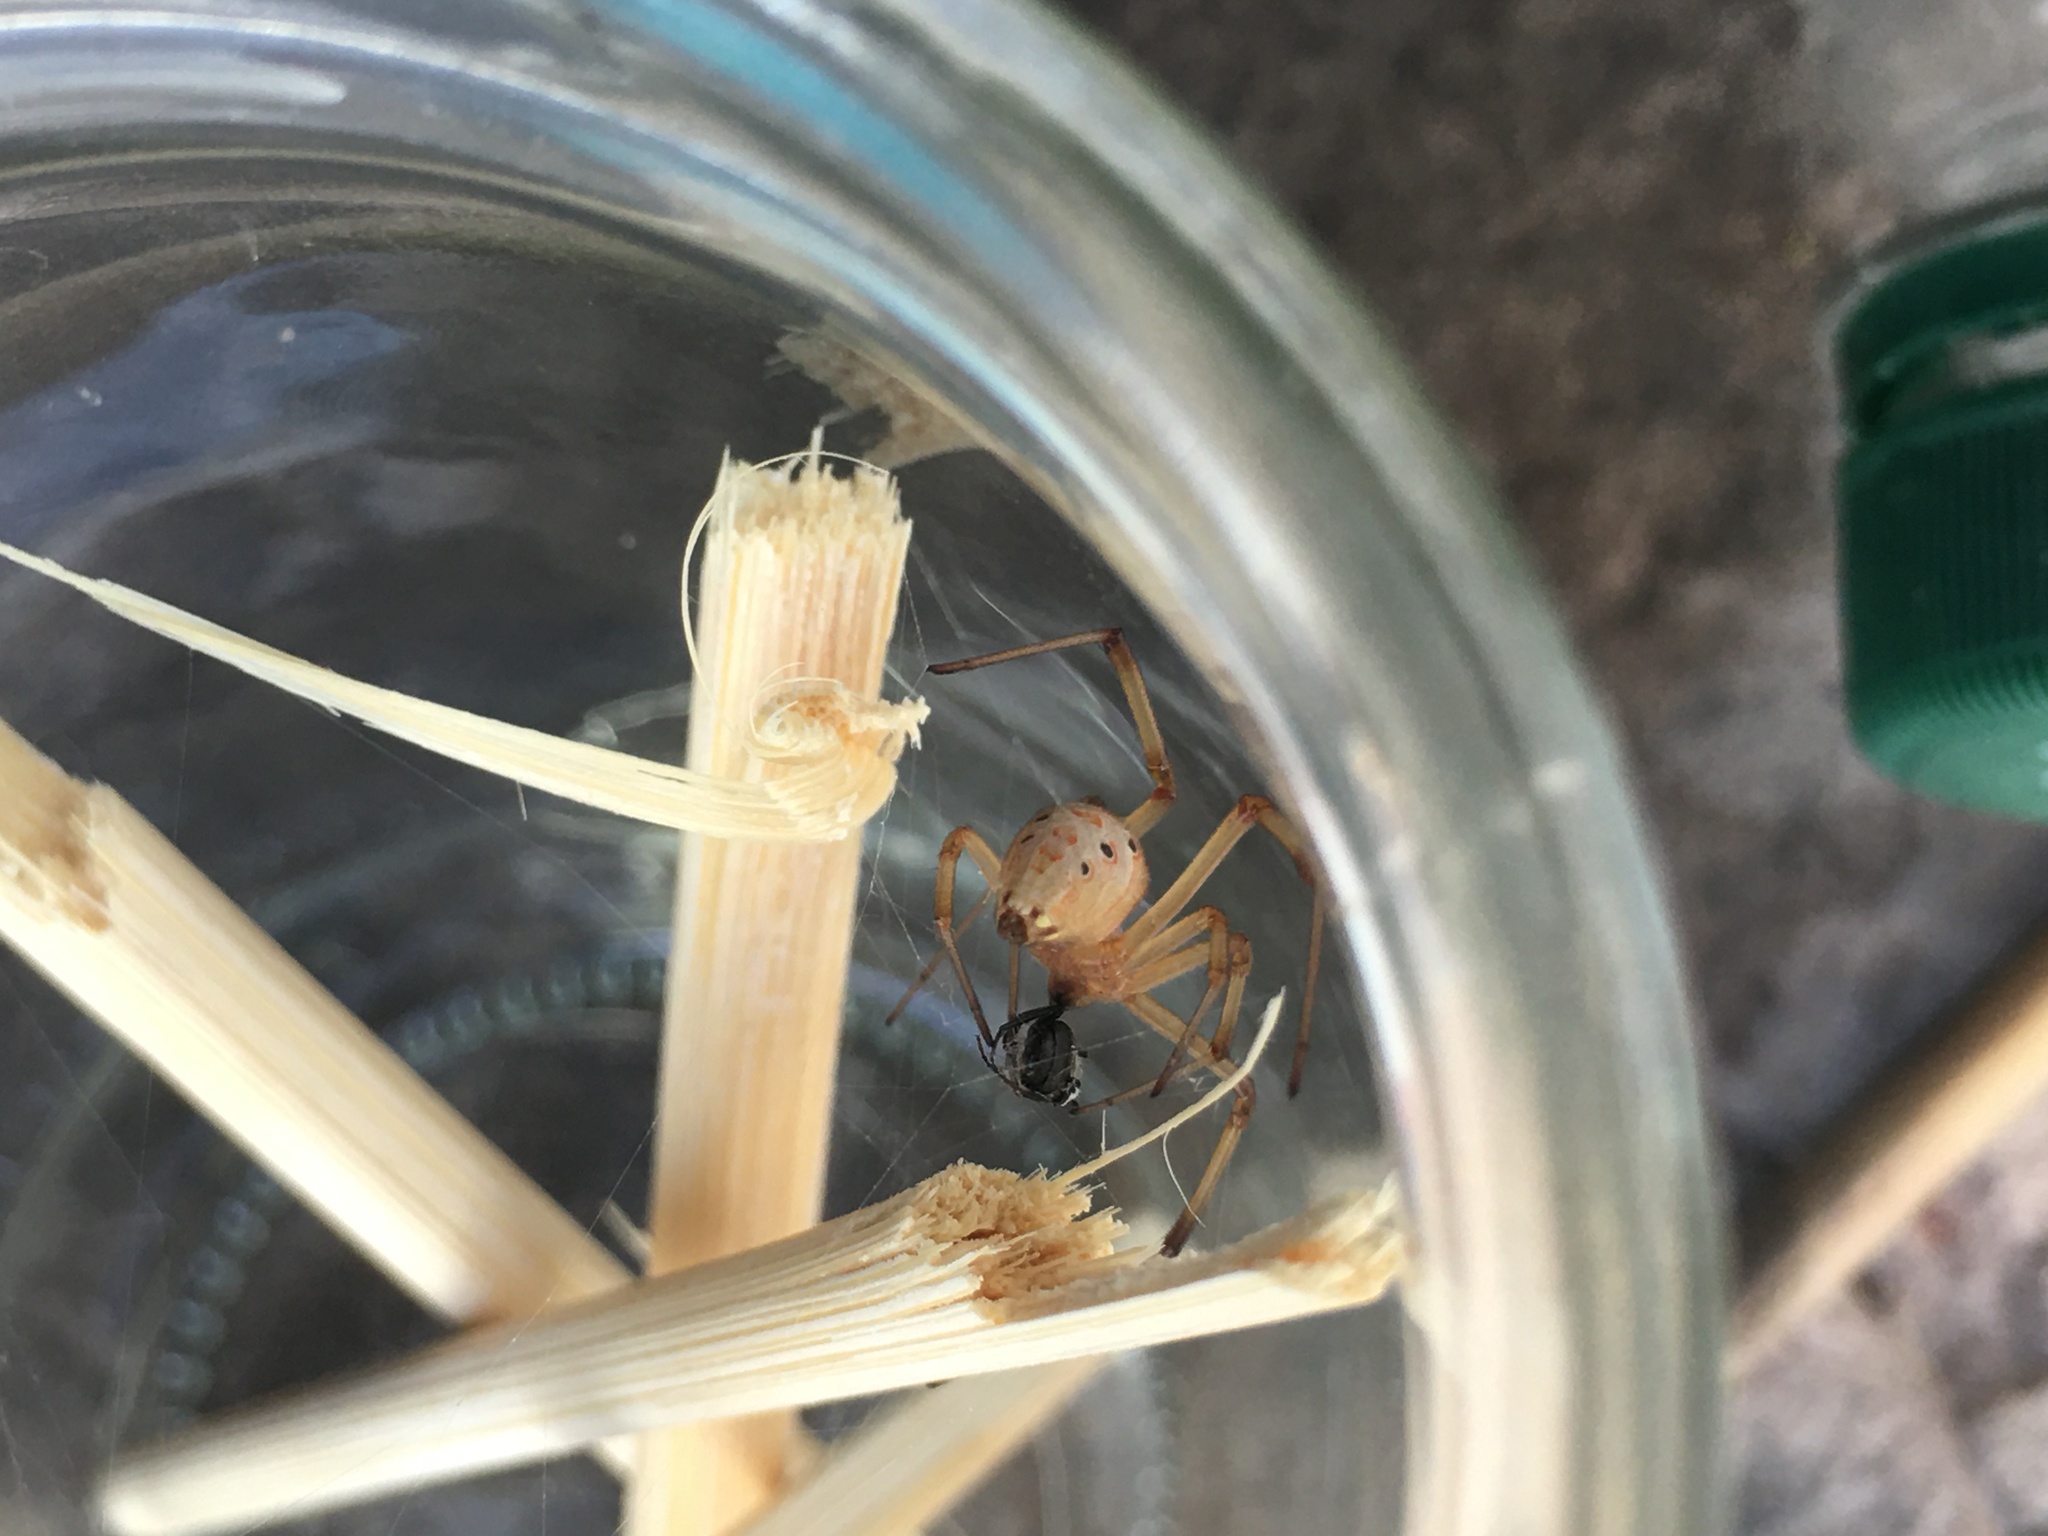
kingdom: Animalia
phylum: Arthropoda
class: Arachnida
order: Araneae
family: Theridiidae
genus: Latrodectus
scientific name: Latrodectus geometricus
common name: Brown widow spider
